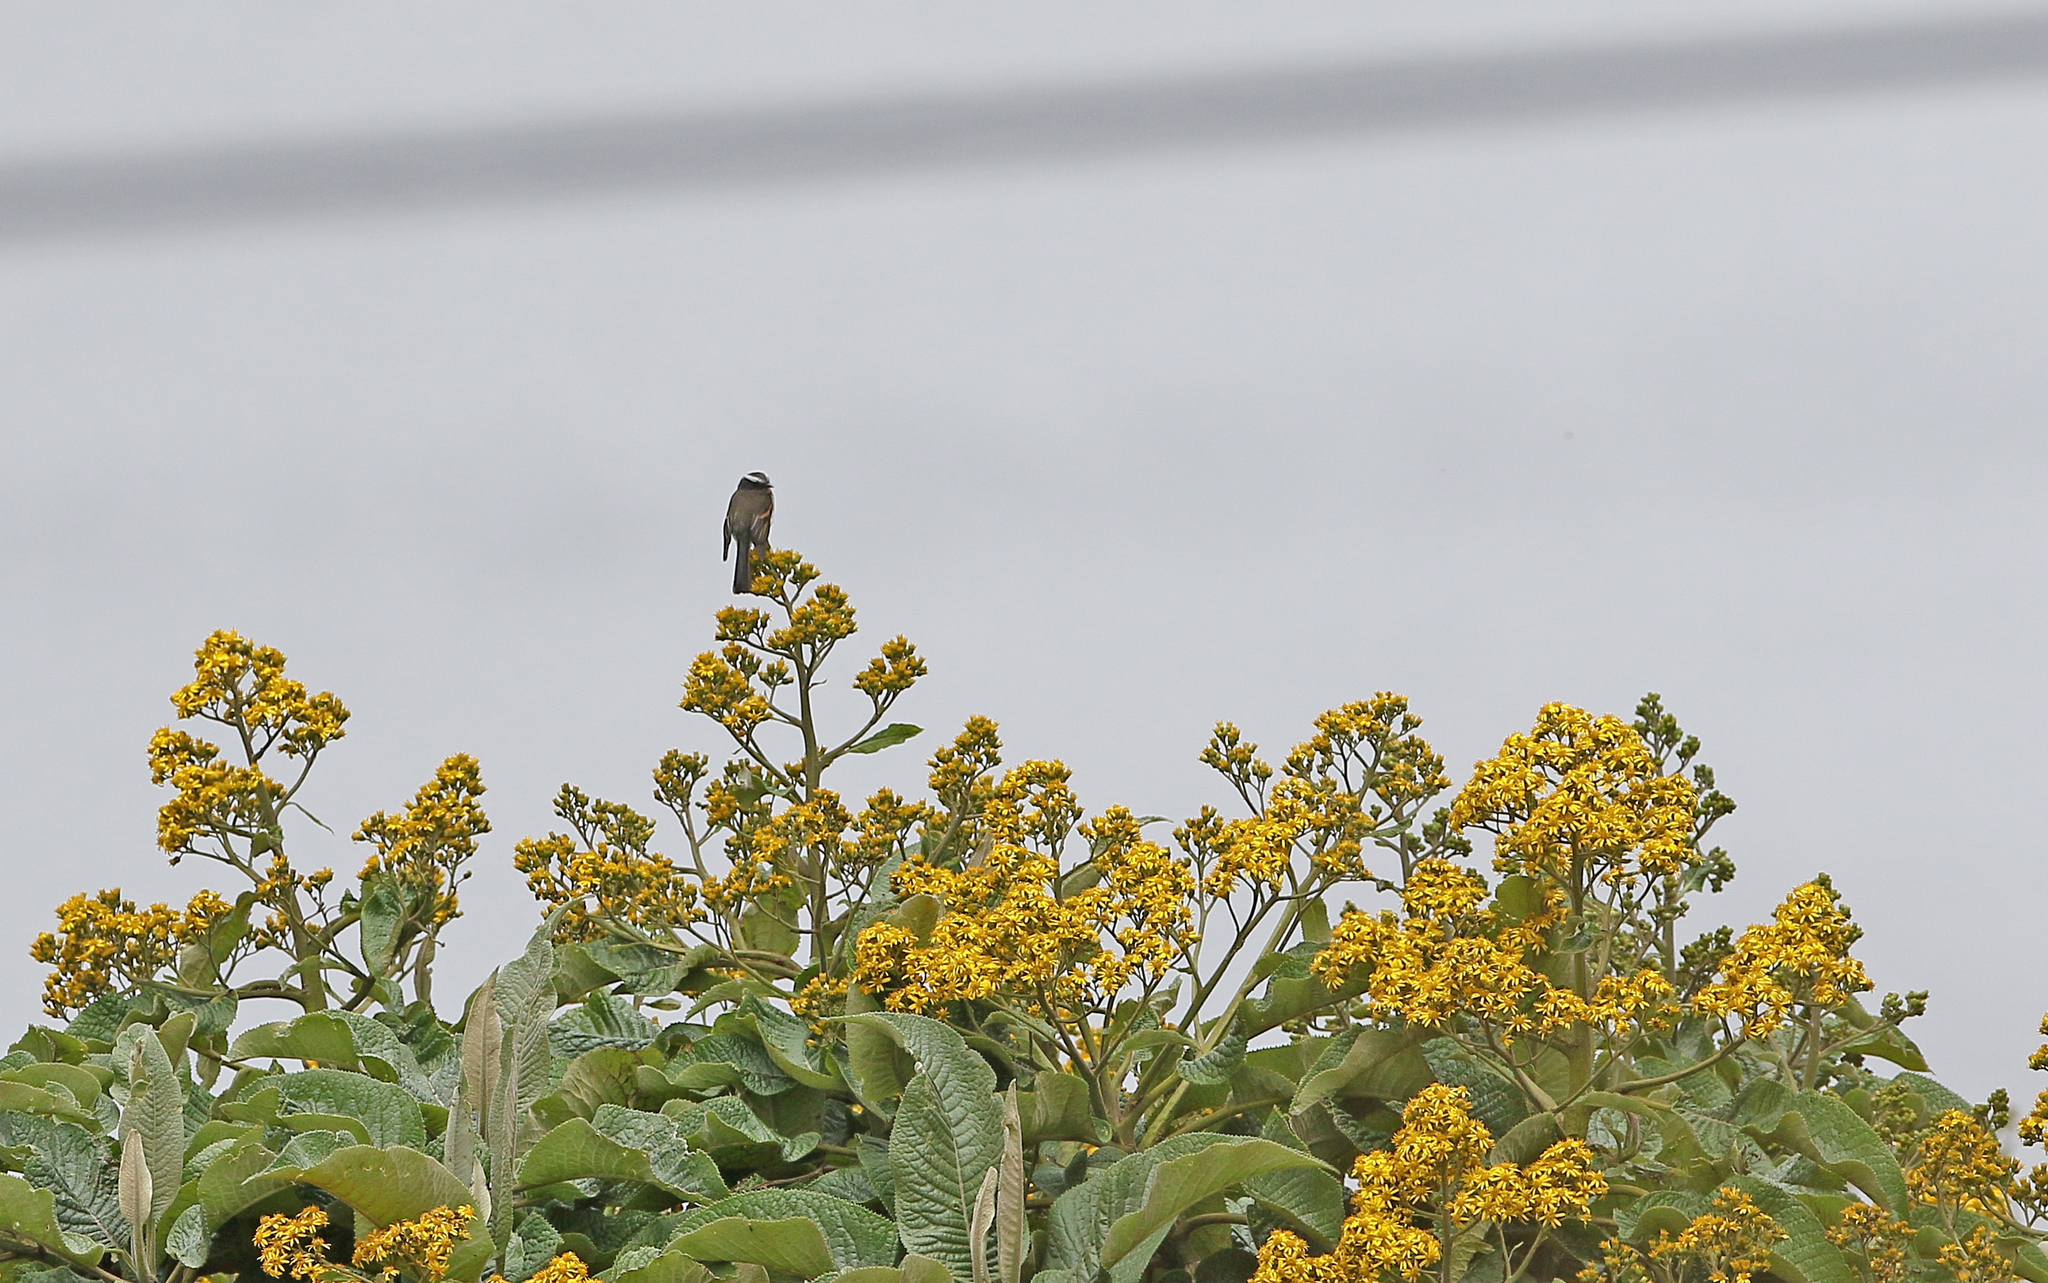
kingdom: Animalia
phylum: Chordata
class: Aves
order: Passeriformes
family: Tyrannidae
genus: Ochthoeca
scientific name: Ochthoeca rufipectoralis
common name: Rufous-breasted chat-tyrant
